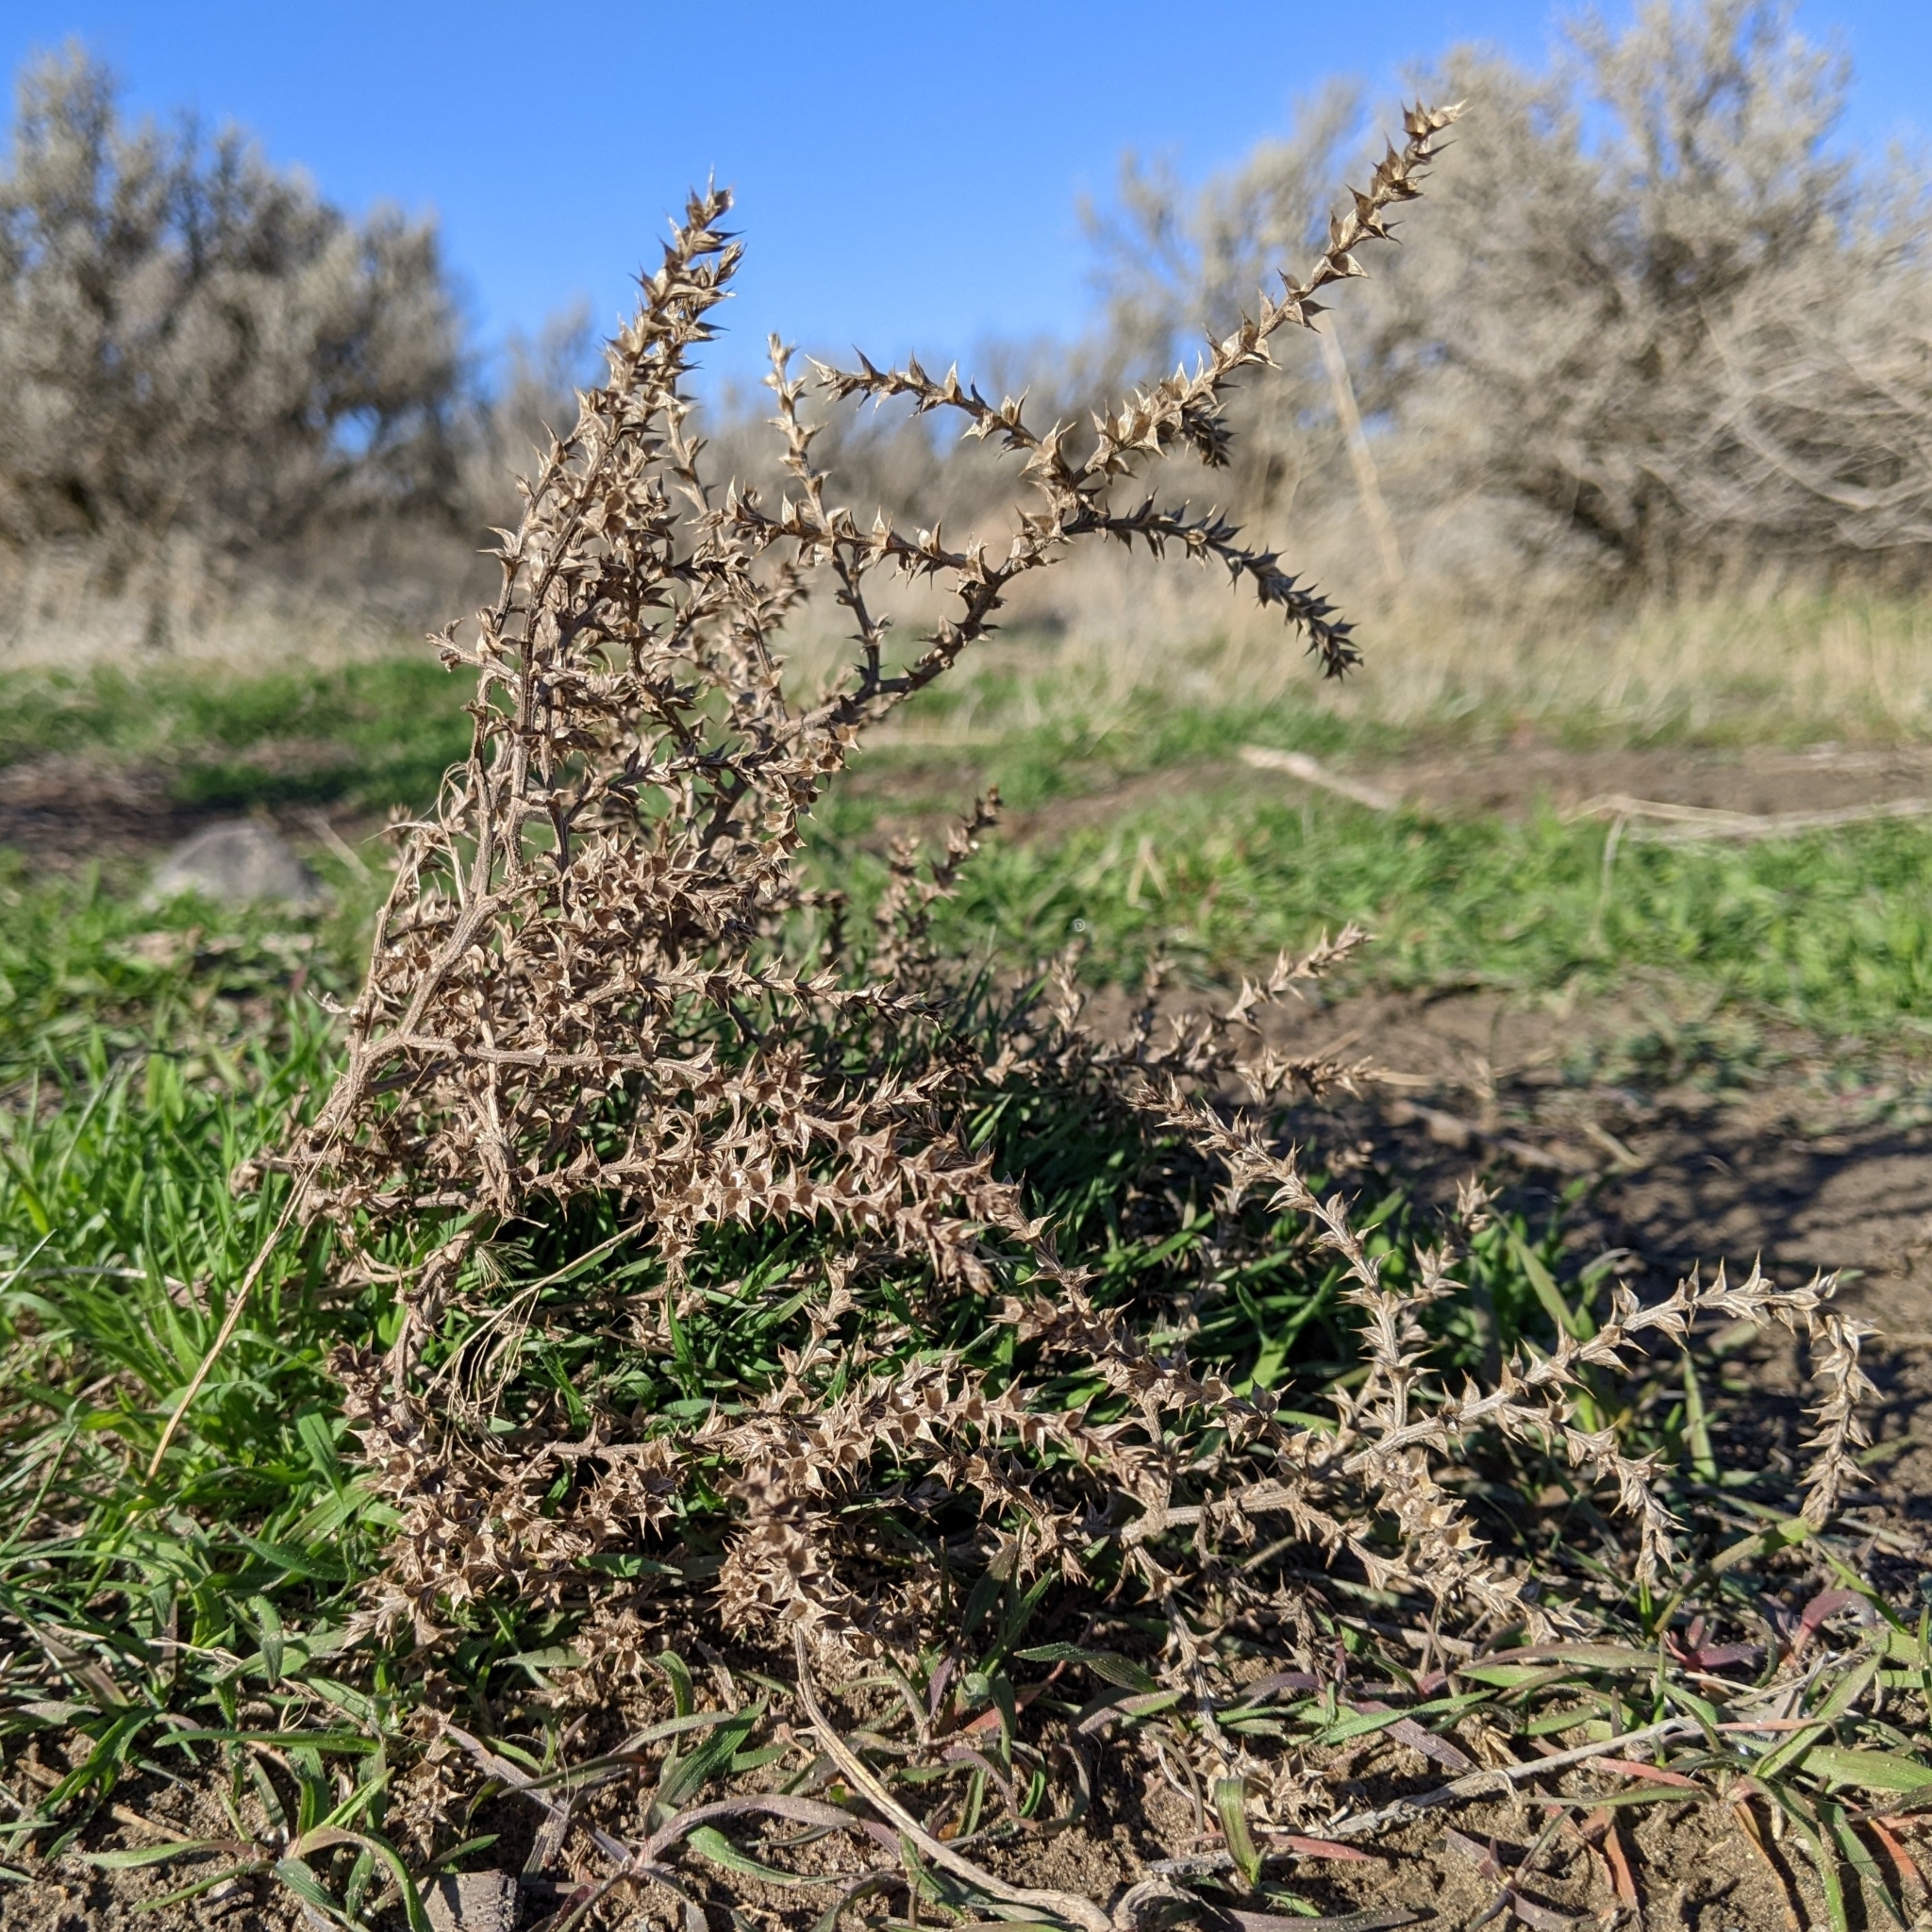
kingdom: Plantae
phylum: Tracheophyta
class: Magnoliopsida
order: Caryophyllales
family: Amaranthaceae
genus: Salsola
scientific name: Salsola tragus
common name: Prickly russian thistle
